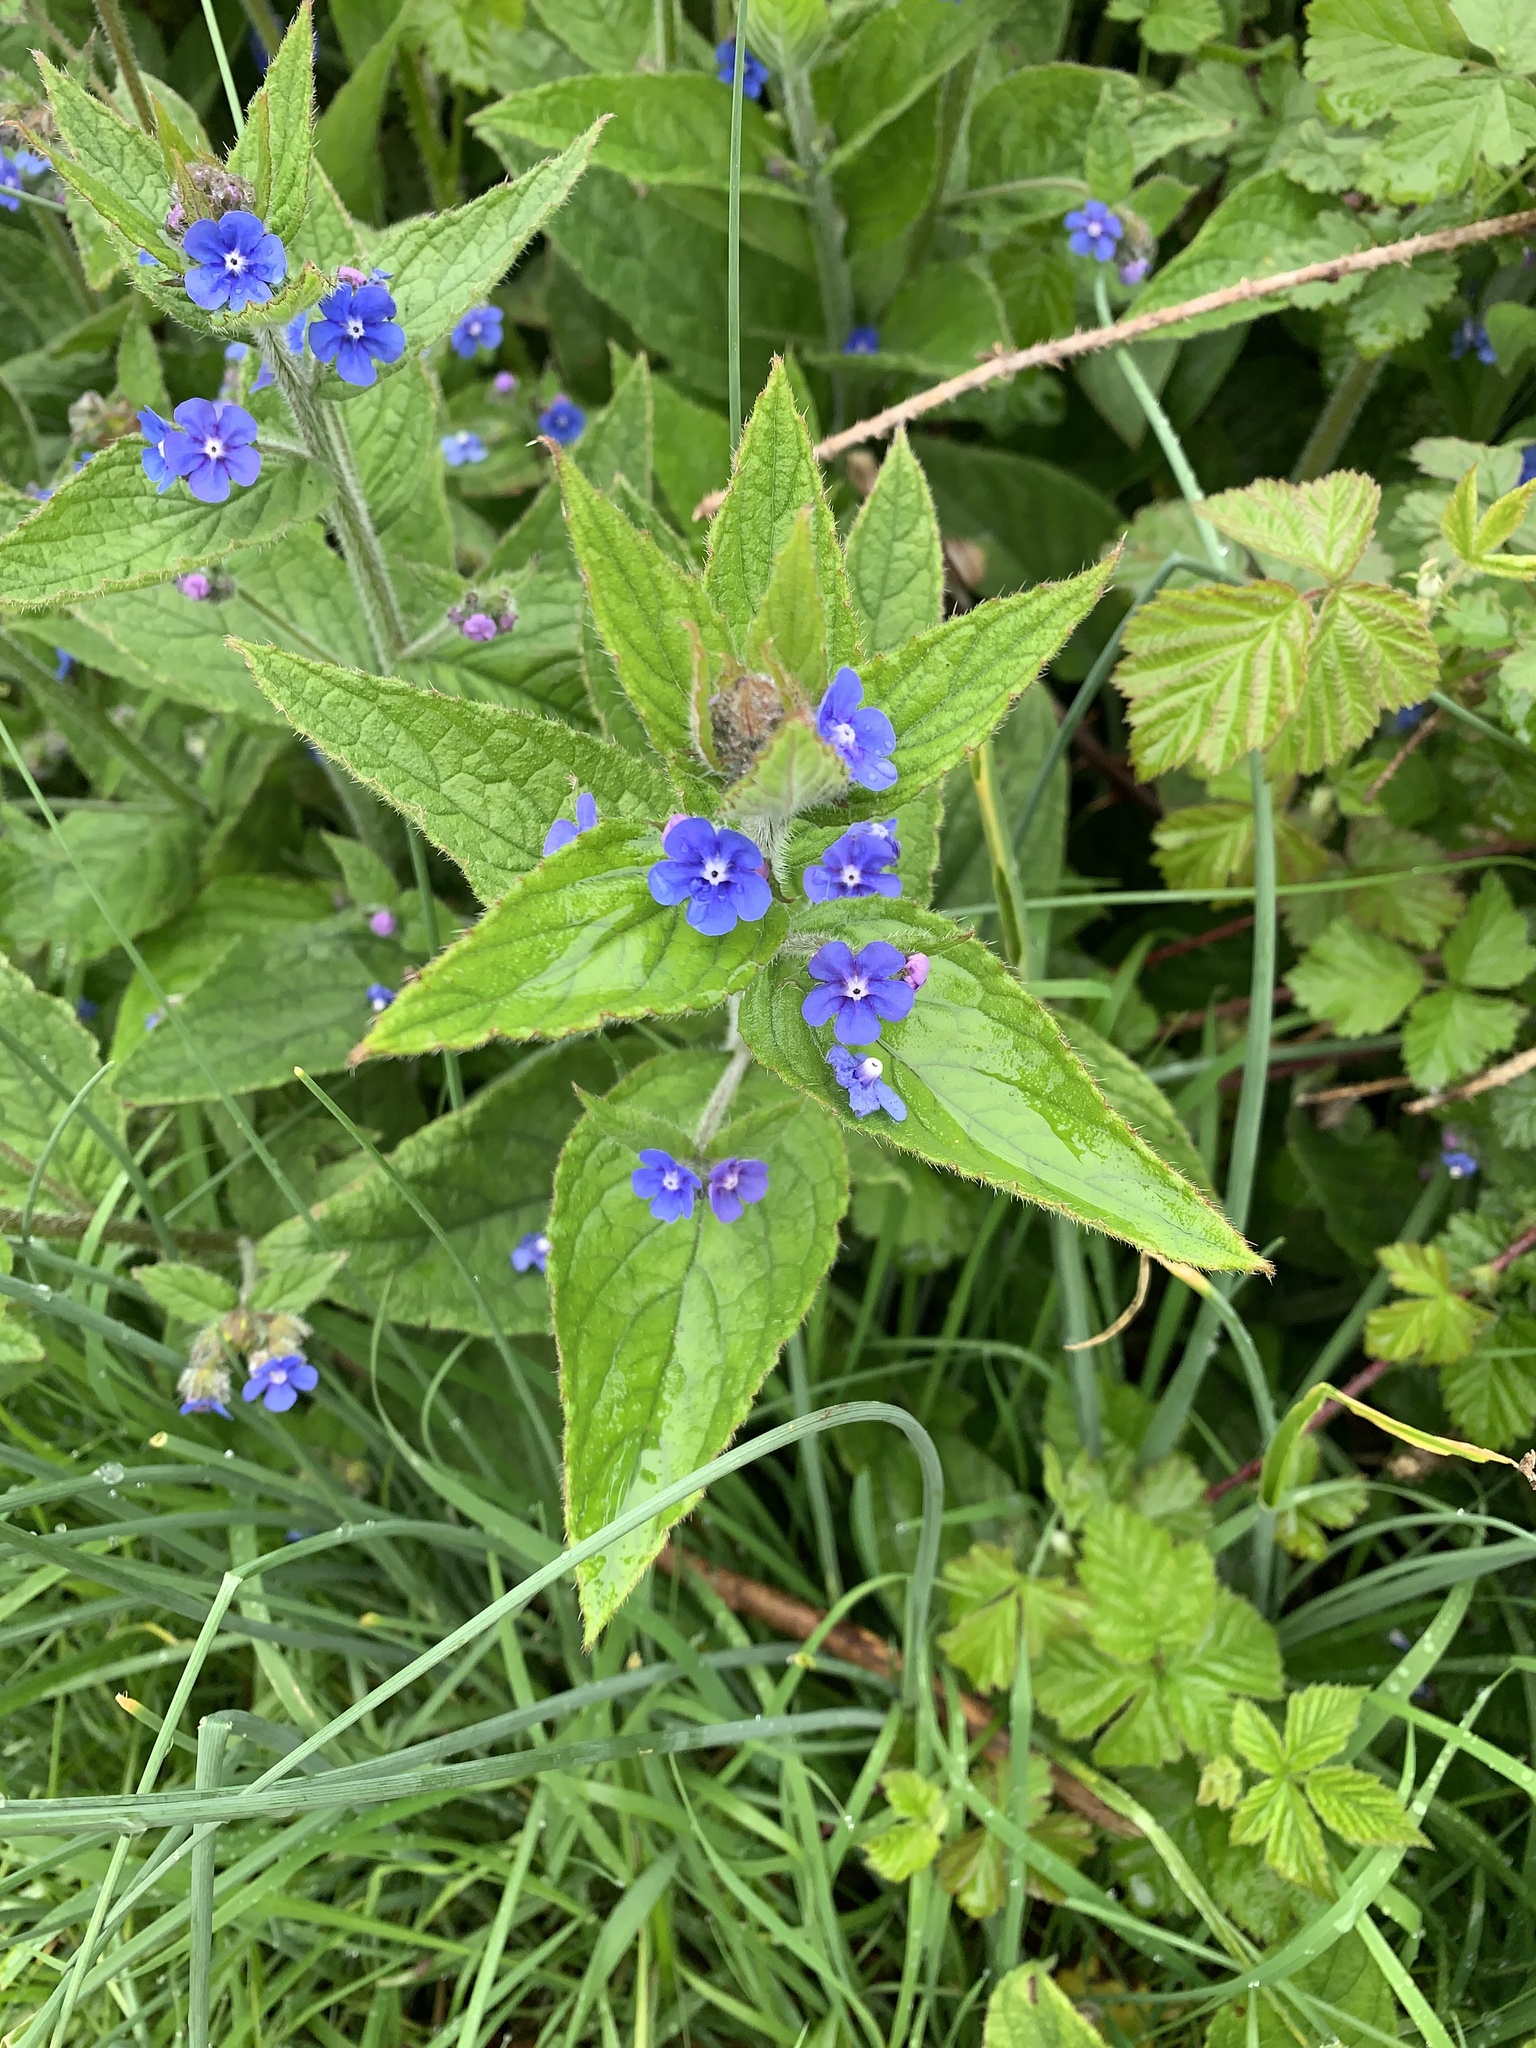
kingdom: Plantae
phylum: Tracheophyta
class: Magnoliopsida
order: Boraginales
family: Boraginaceae
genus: Pentaglottis
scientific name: Pentaglottis sempervirens
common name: Green alkanet
